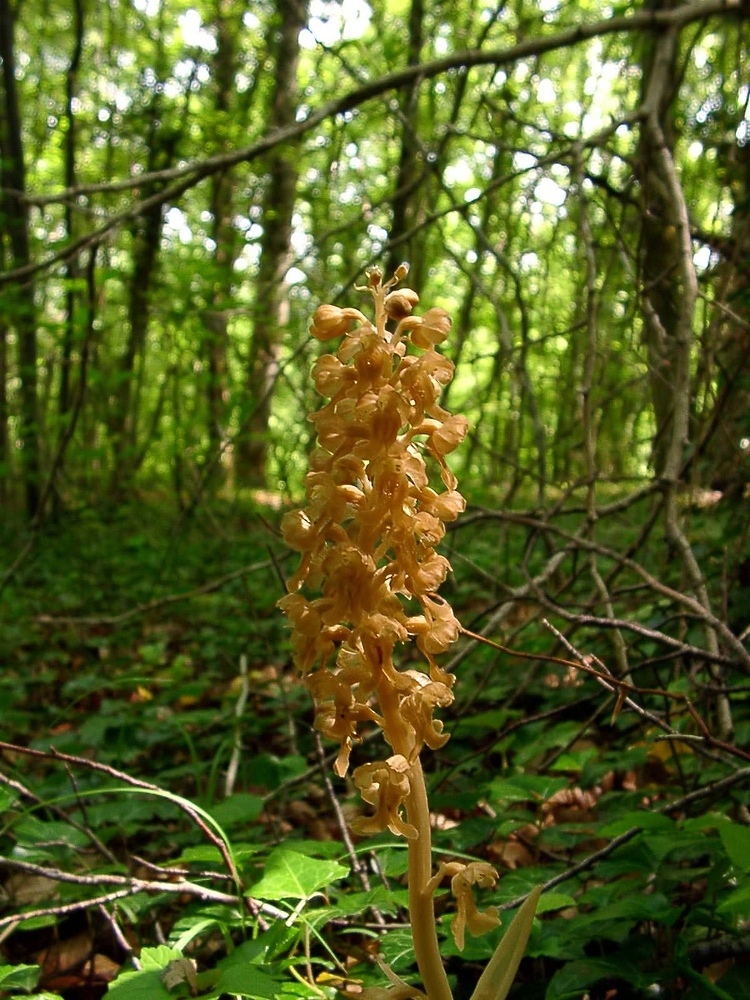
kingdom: Plantae
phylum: Tracheophyta
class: Liliopsida
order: Asparagales
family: Orchidaceae
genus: Neottia
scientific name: Neottia nidus-avis
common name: Bird's-nest orchid
